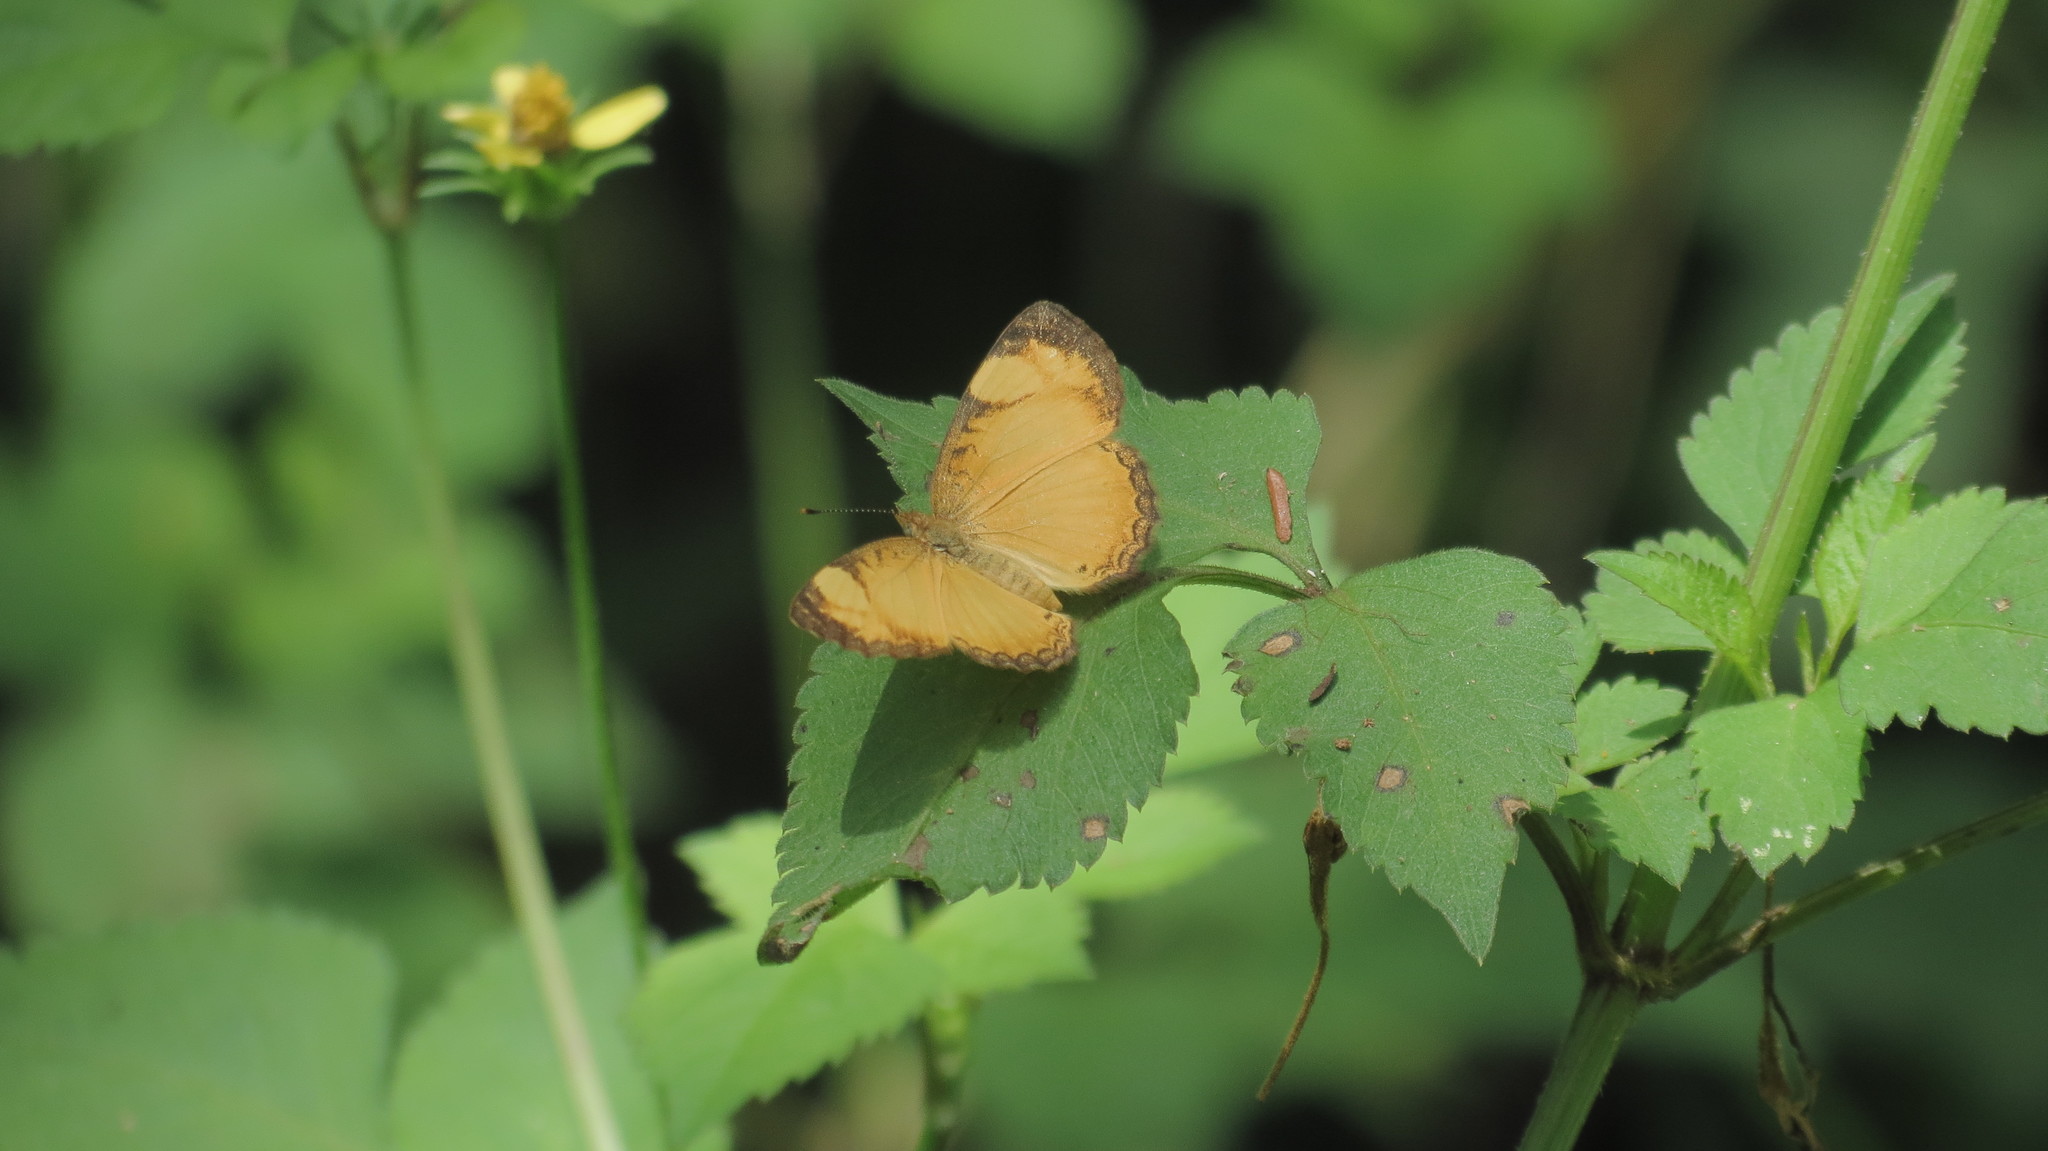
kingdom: Animalia
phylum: Arthropoda
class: Insecta
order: Lepidoptera
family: Nymphalidae
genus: Tegosa
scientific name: Tegosa guatemalena
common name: Guatemalan crescent
